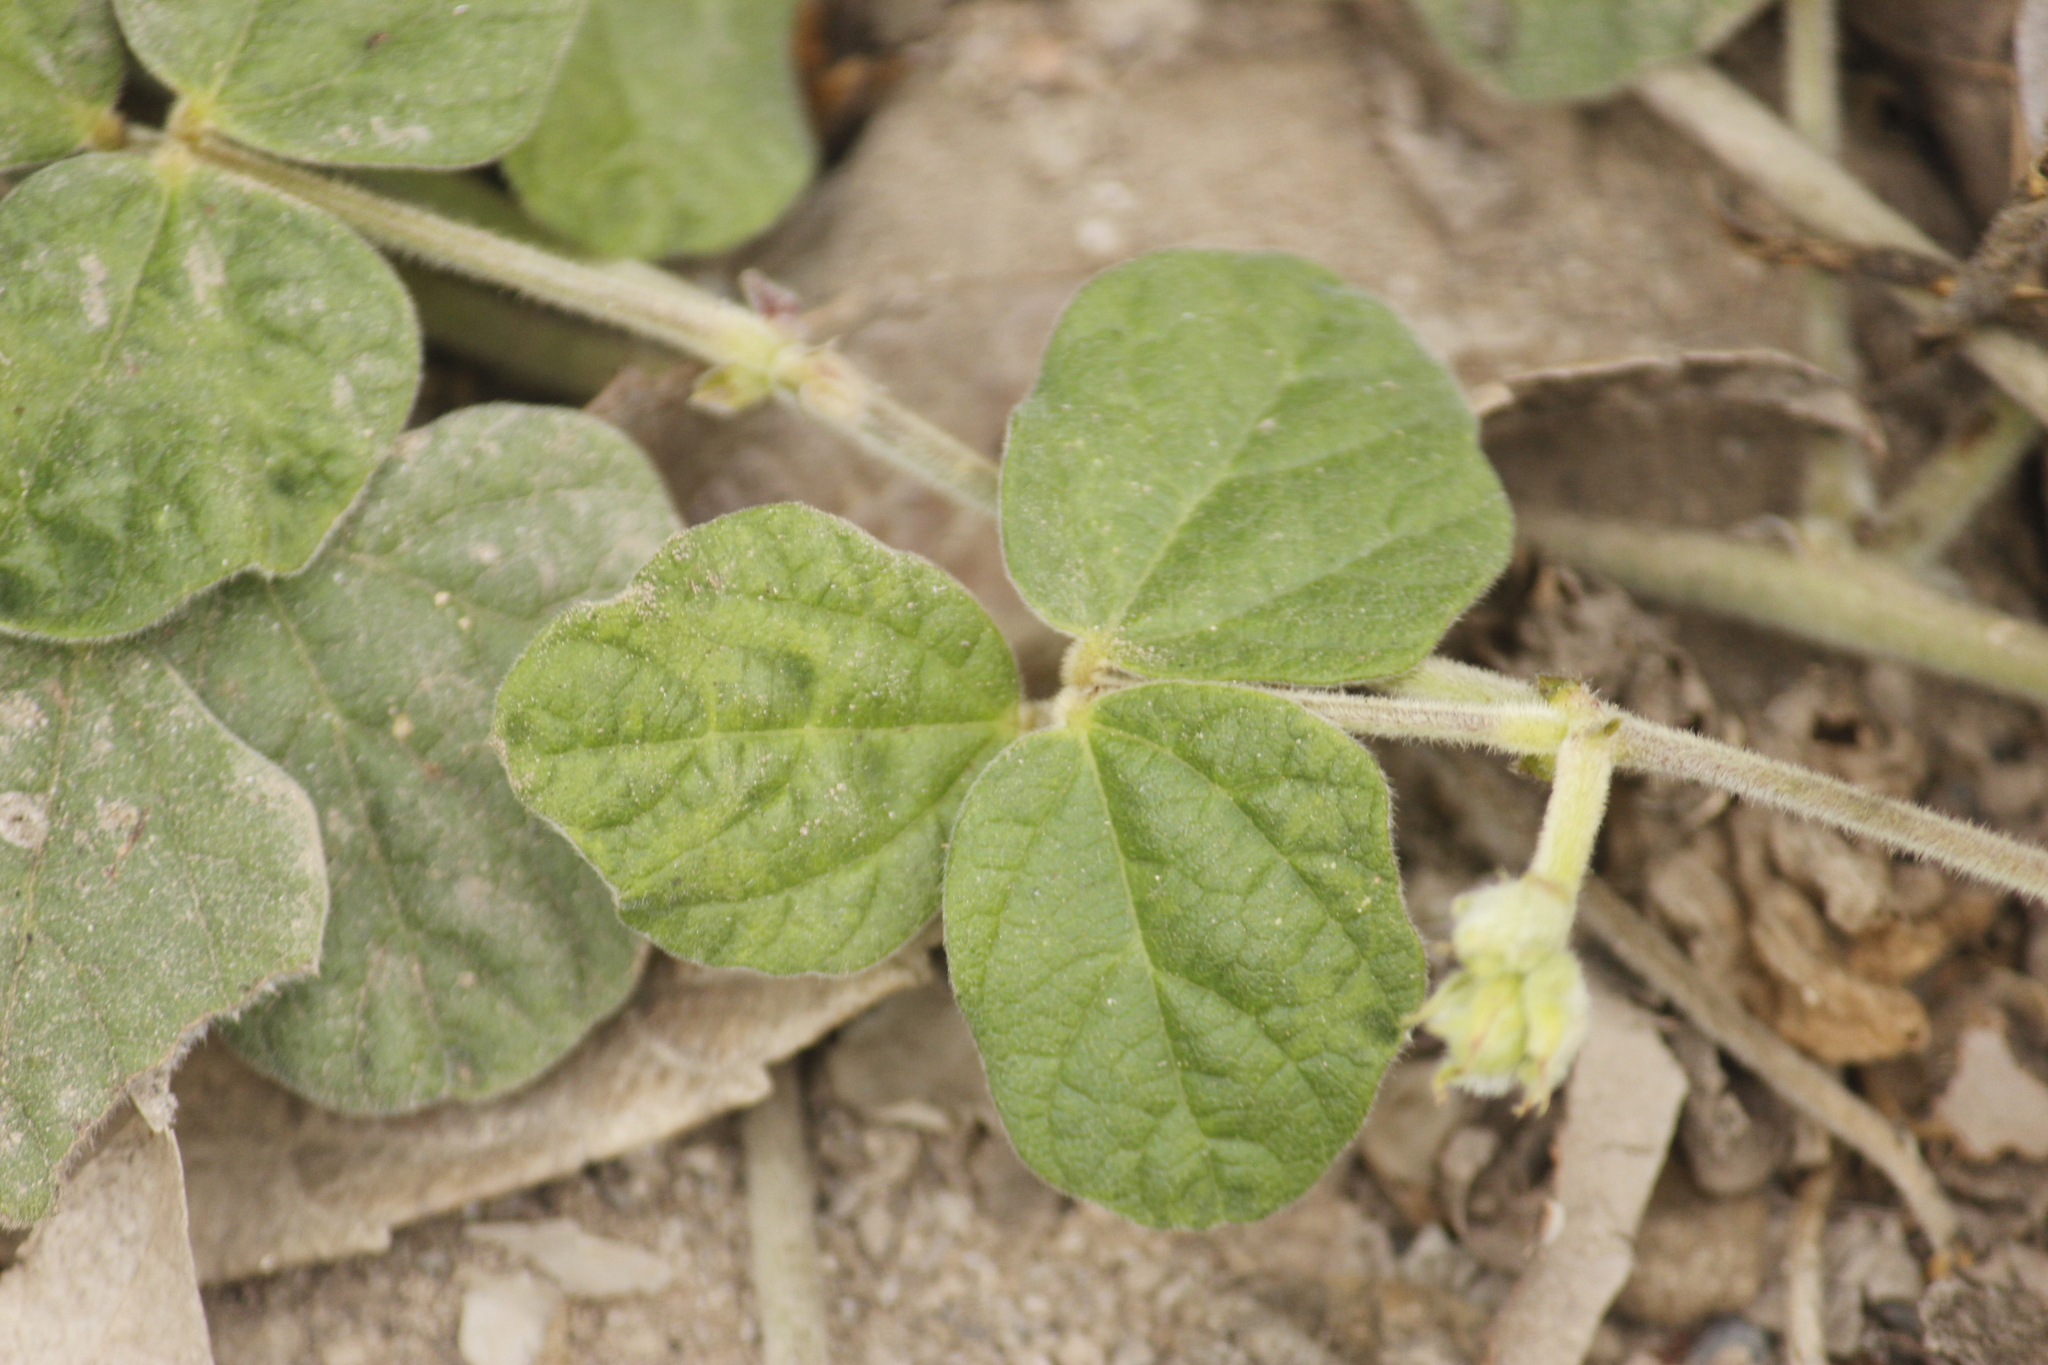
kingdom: Plantae
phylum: Tracheophyta
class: Magnoliopsida
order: Fabales
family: Fabaceae
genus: Macroptilium
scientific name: Macroptilium atropurpureum
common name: Purple bushbean
